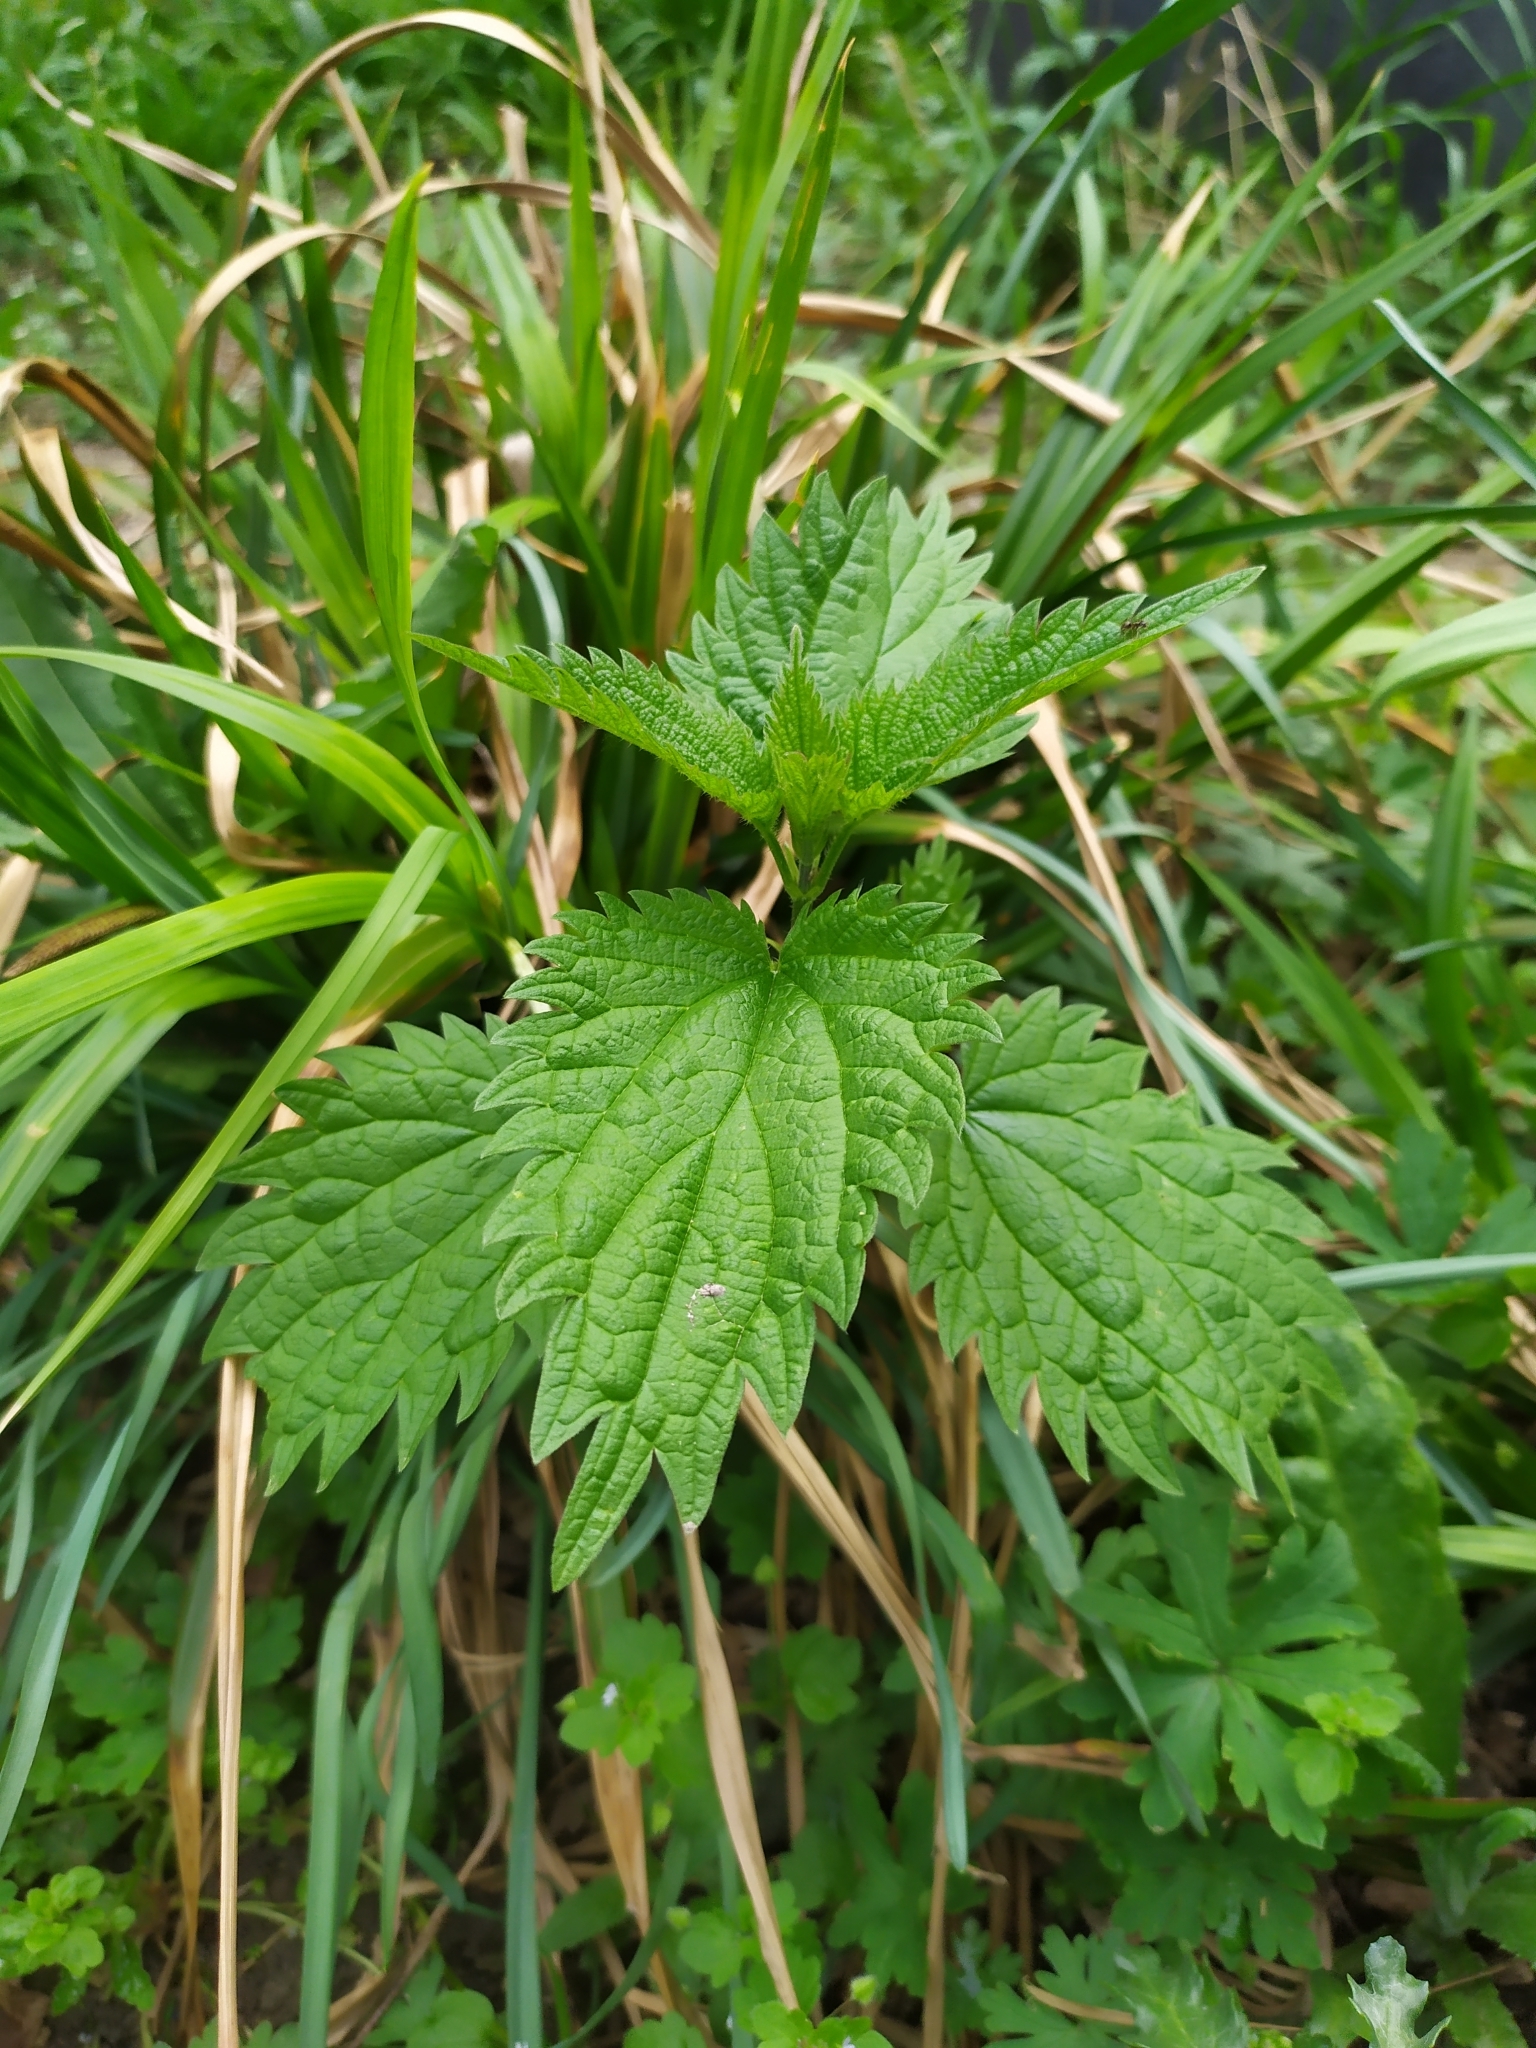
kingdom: Plantae
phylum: Tracheophyta
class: Magnoliopsida
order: Rosales
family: Urticaceae
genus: Urtica
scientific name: Urtica dioica
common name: Common nettle
